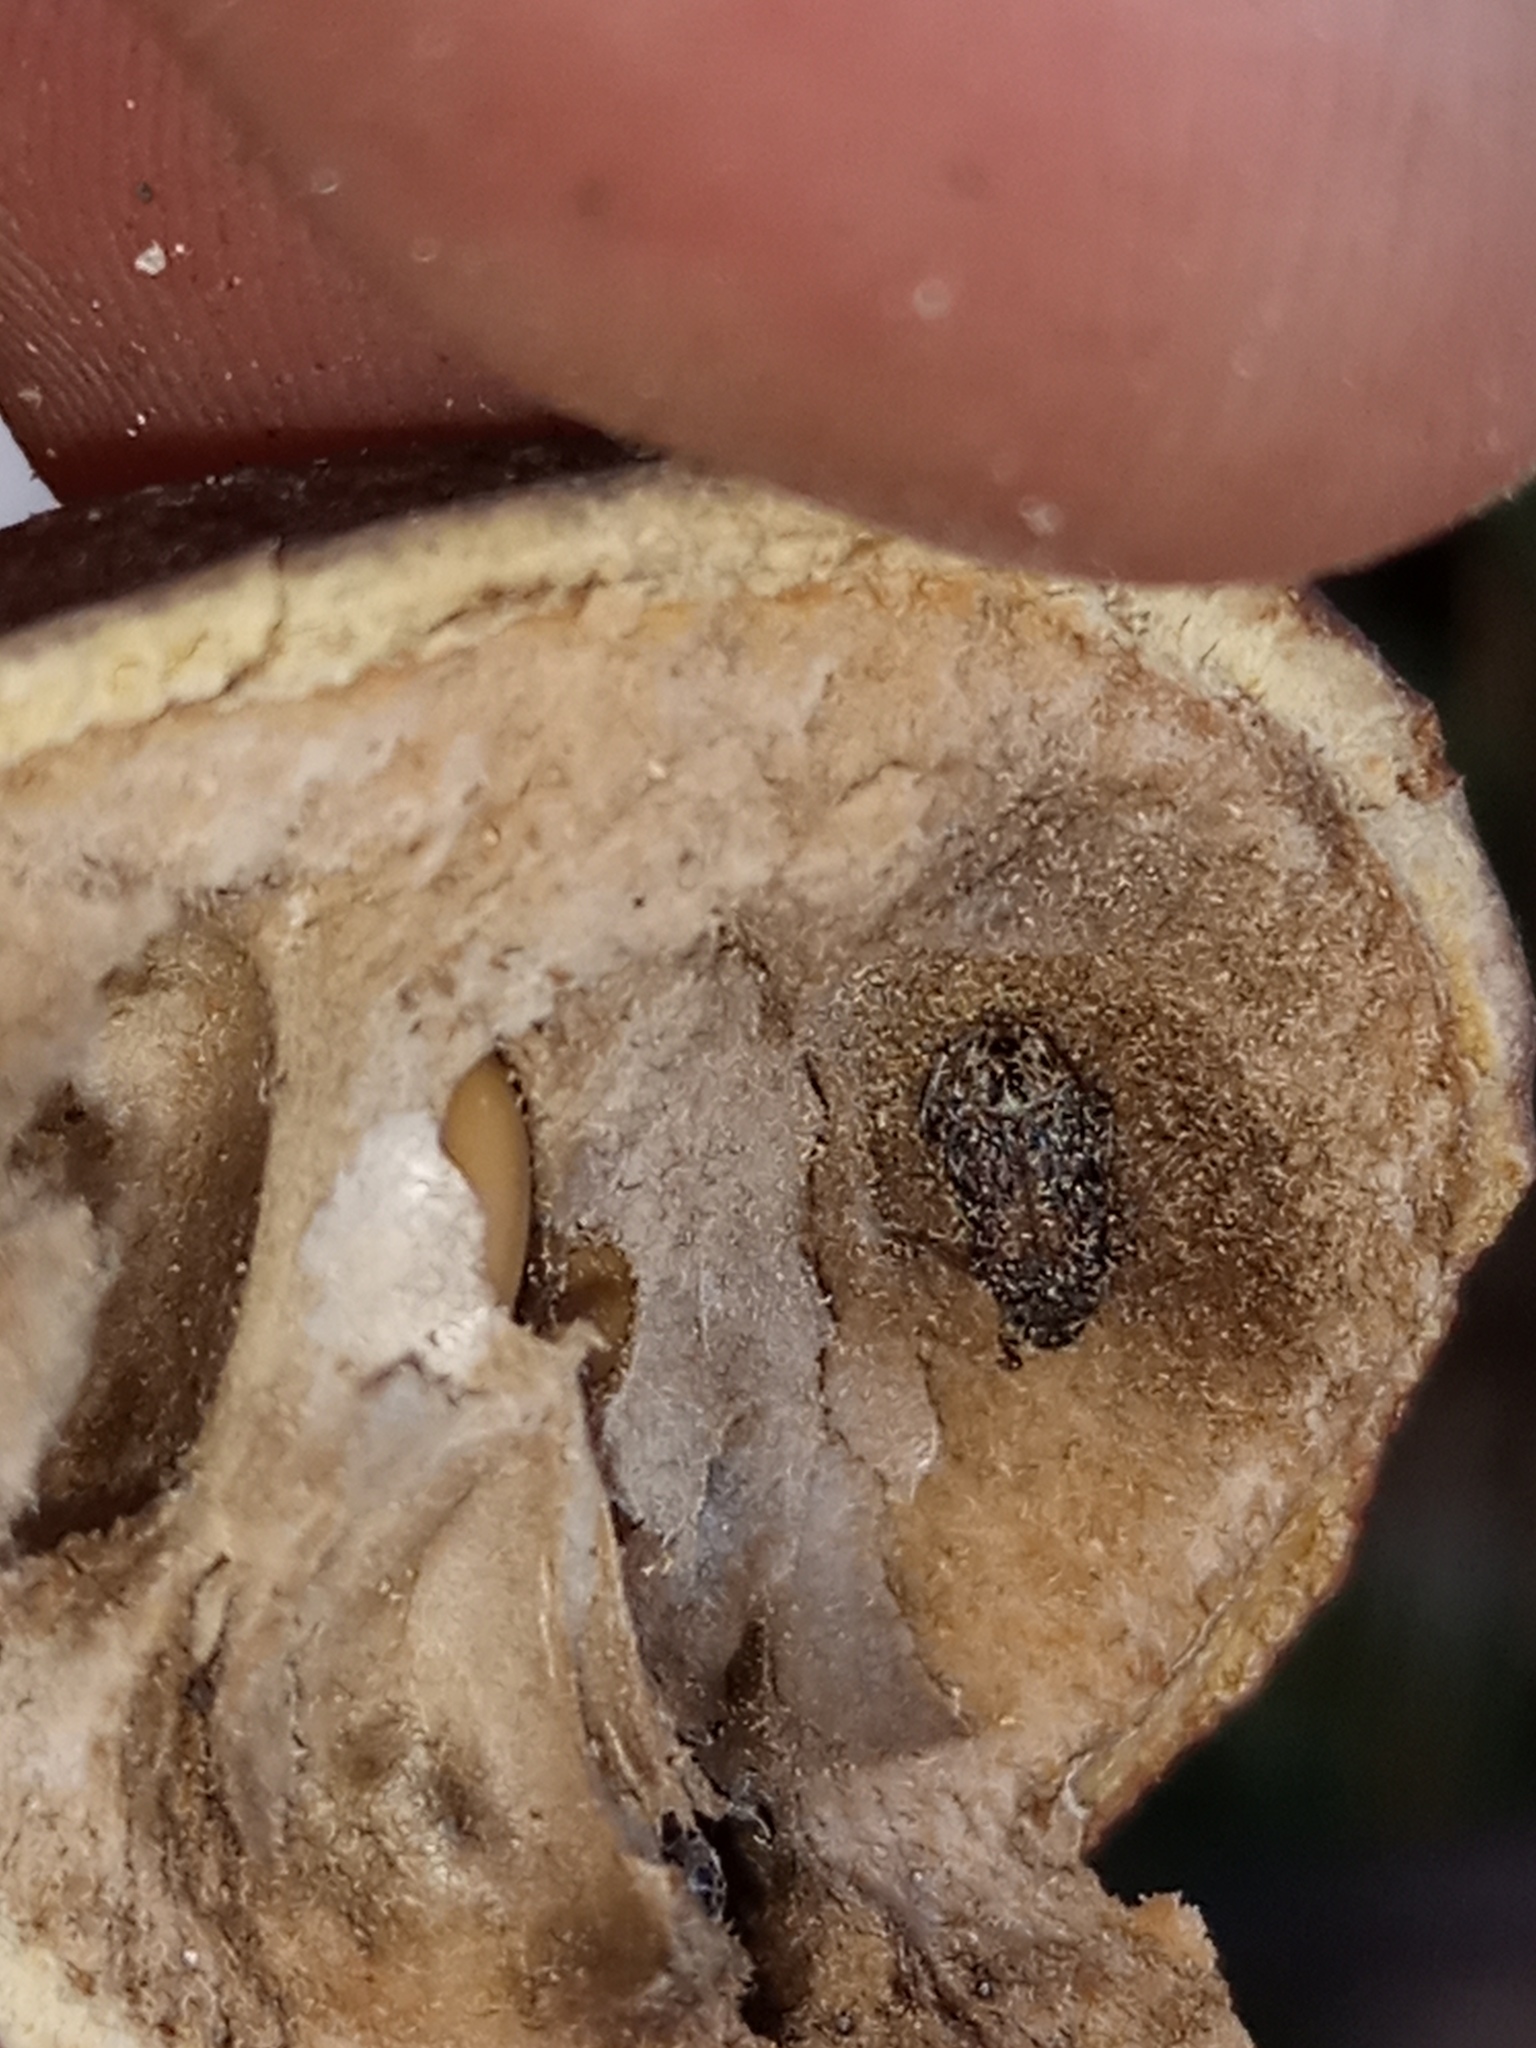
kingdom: Animalia
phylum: Arthropoda
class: Insecta
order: Coleoptera
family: Chrysomelidae
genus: Pseudopachymerina
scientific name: Pseudopachymerina spinipes
